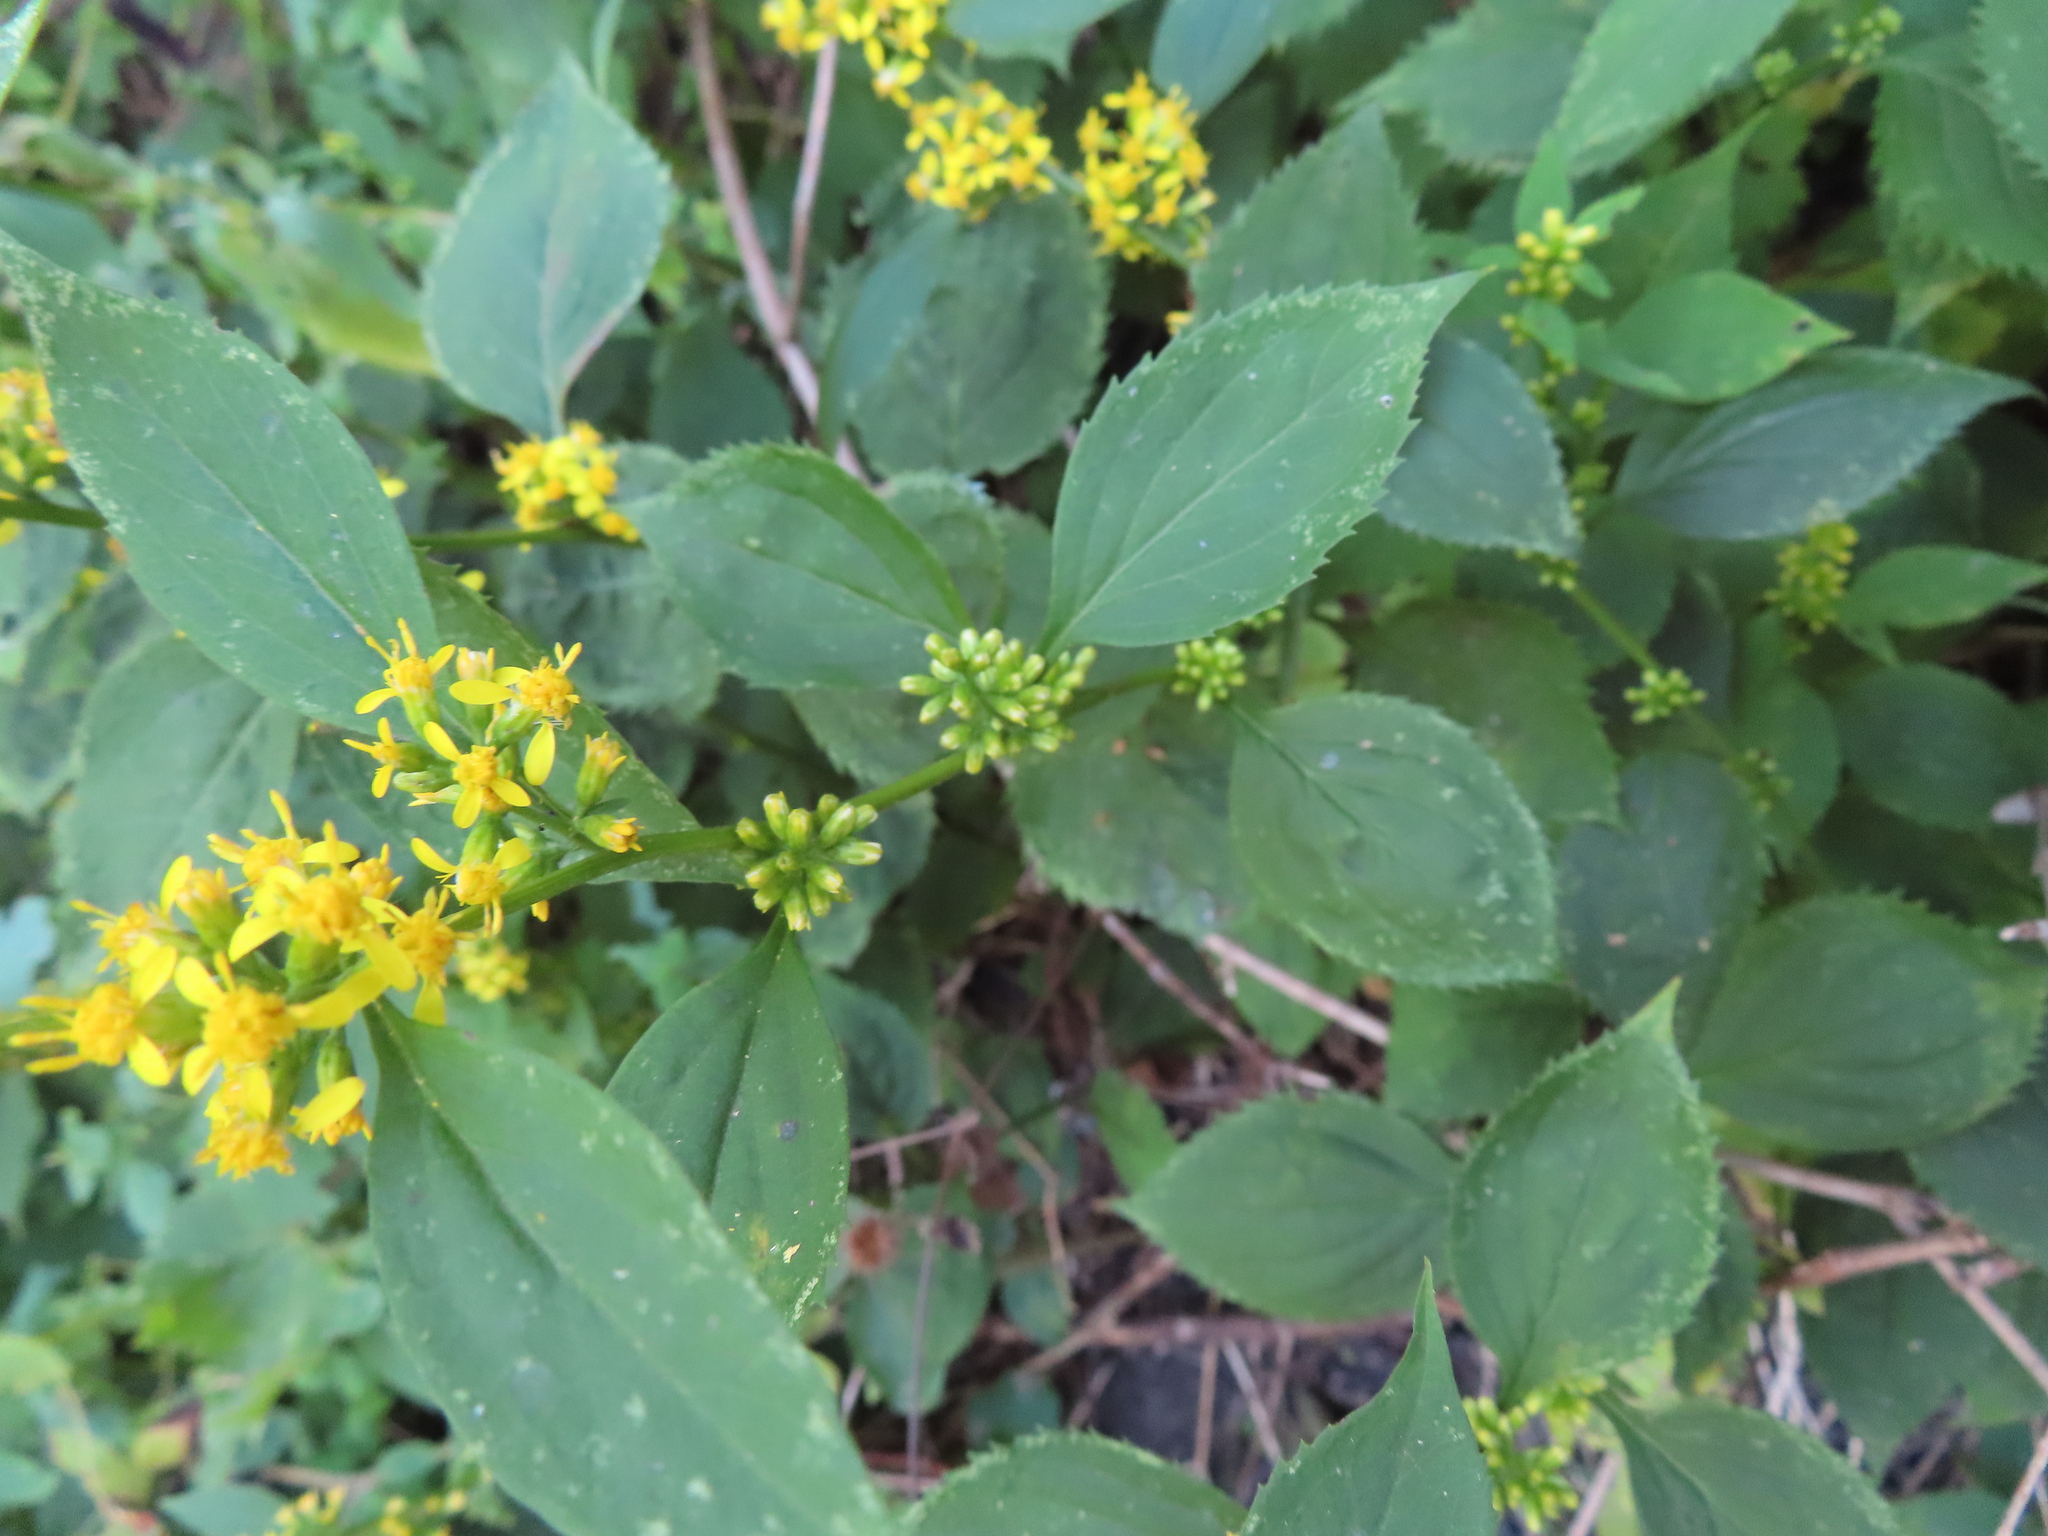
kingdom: Plantae
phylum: Tracheophyta
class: Magnoliopsida
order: Asterales
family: Asteraceae
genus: Solidago
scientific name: Solidago flexicaulis
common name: Zig-zag goldenrod
